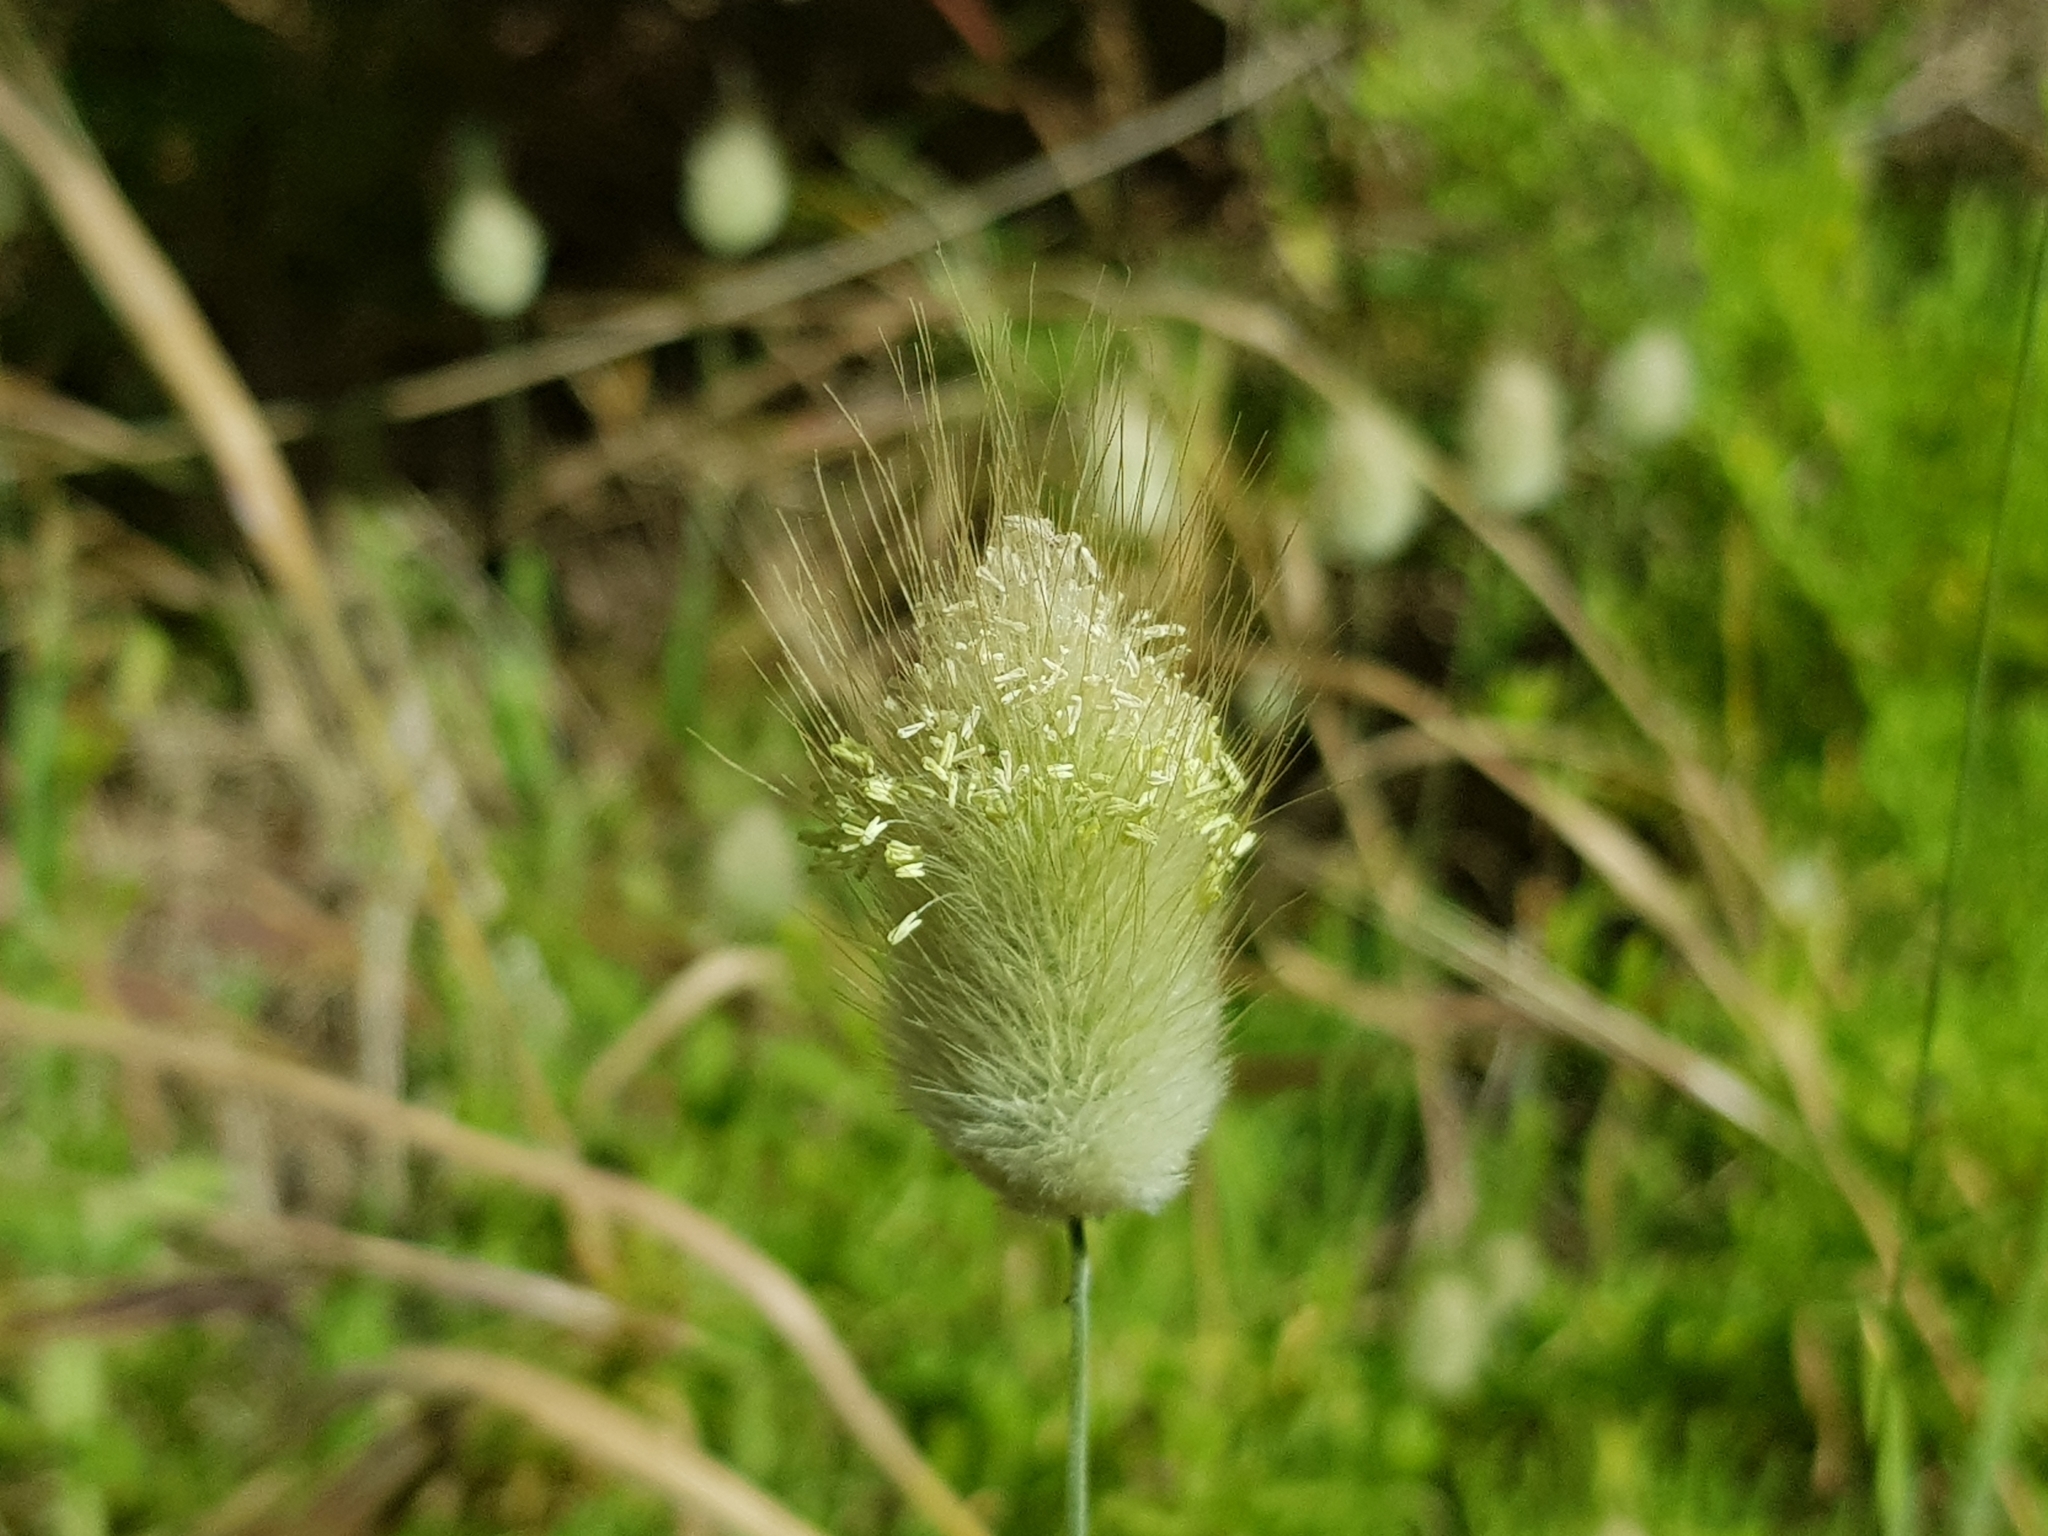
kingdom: Plantae
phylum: Tracheophyta
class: Liliopsida
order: Poales
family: Poaceae
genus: Lagurus
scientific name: Lagurus ovatus
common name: Hare's-tail
